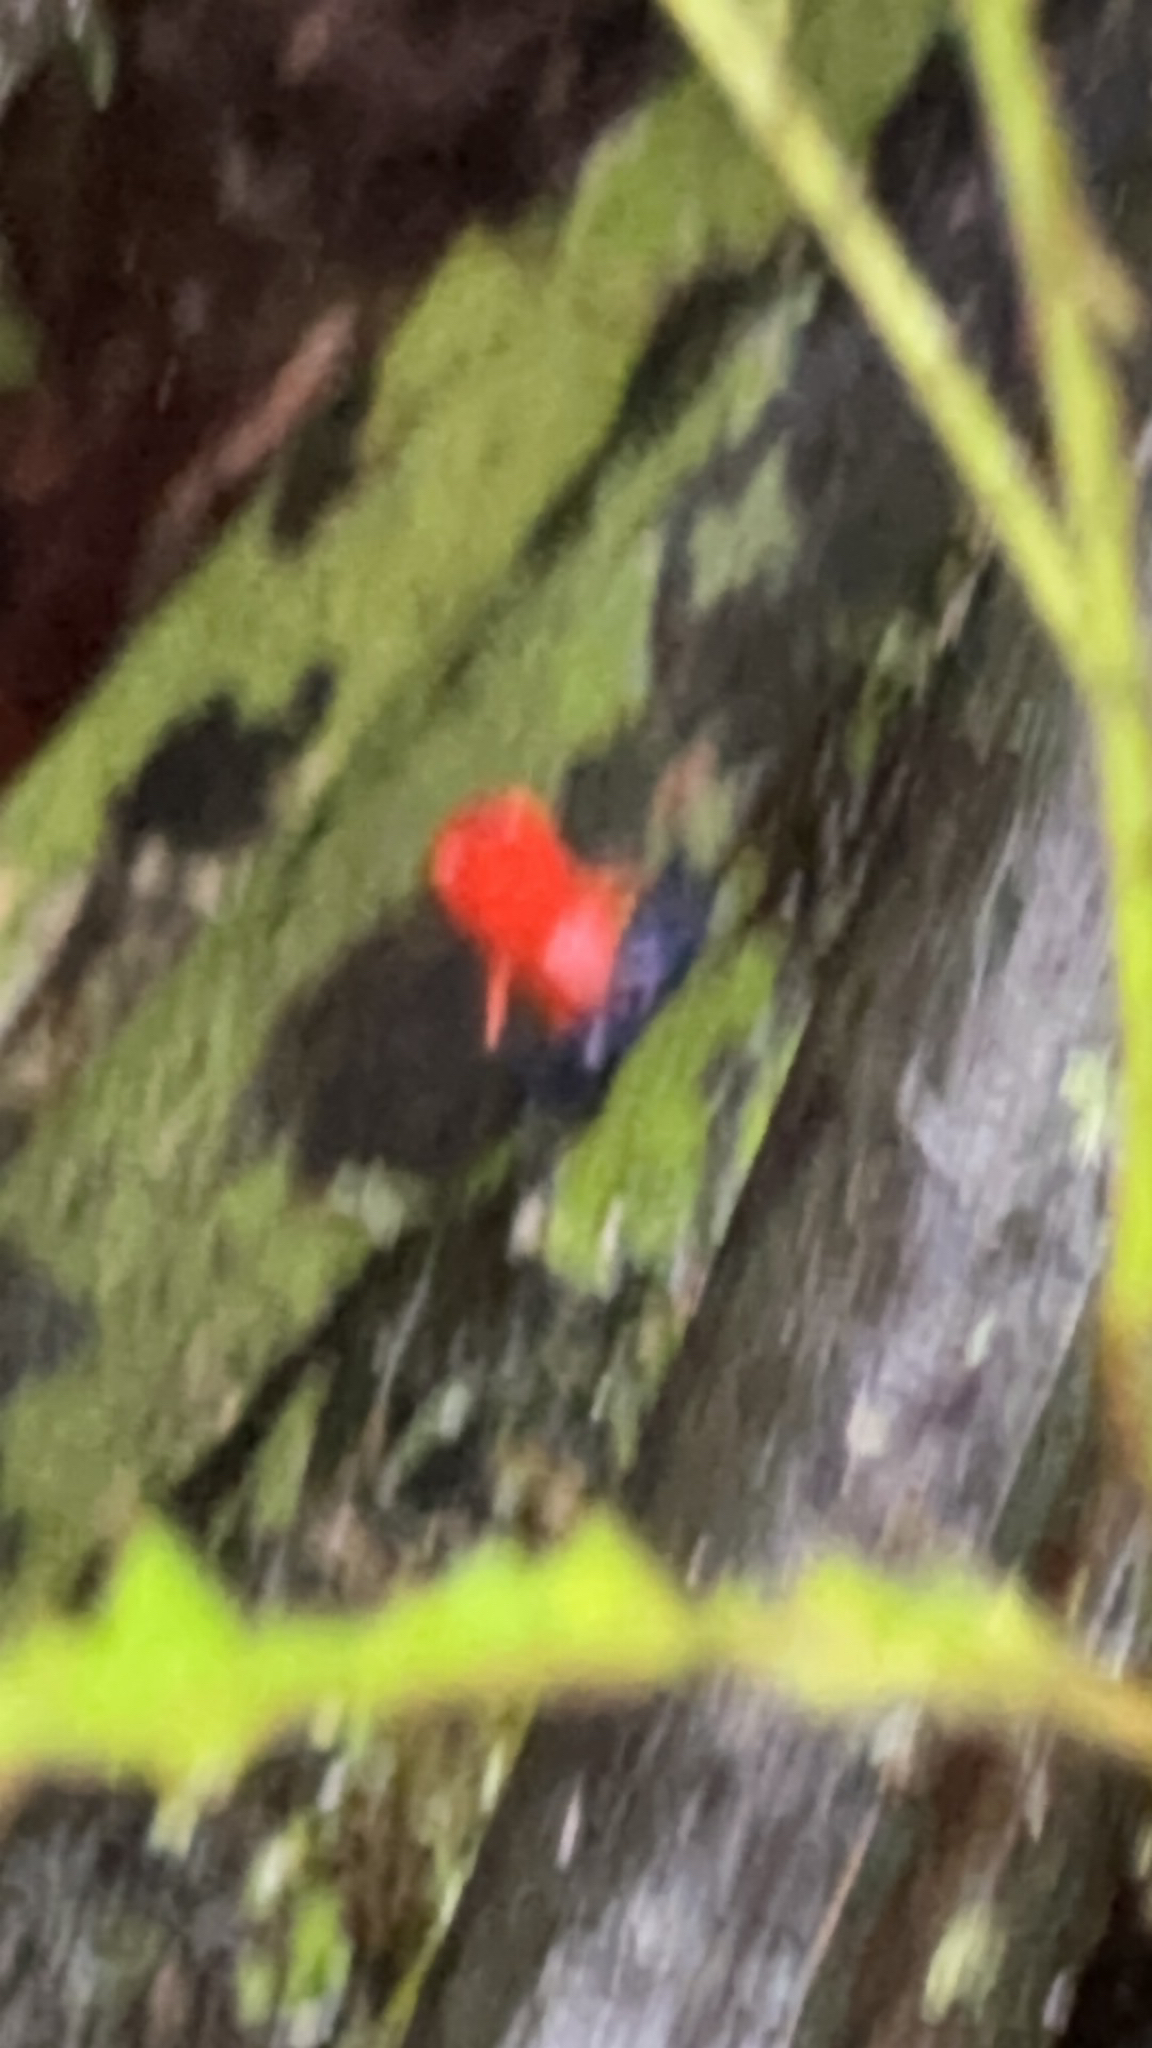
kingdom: Animalia
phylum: Chordata
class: Amphibia
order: Anura
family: Dendrobatidae
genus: Oophaga
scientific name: Oophaga pumilio
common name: Flaming poison frog
